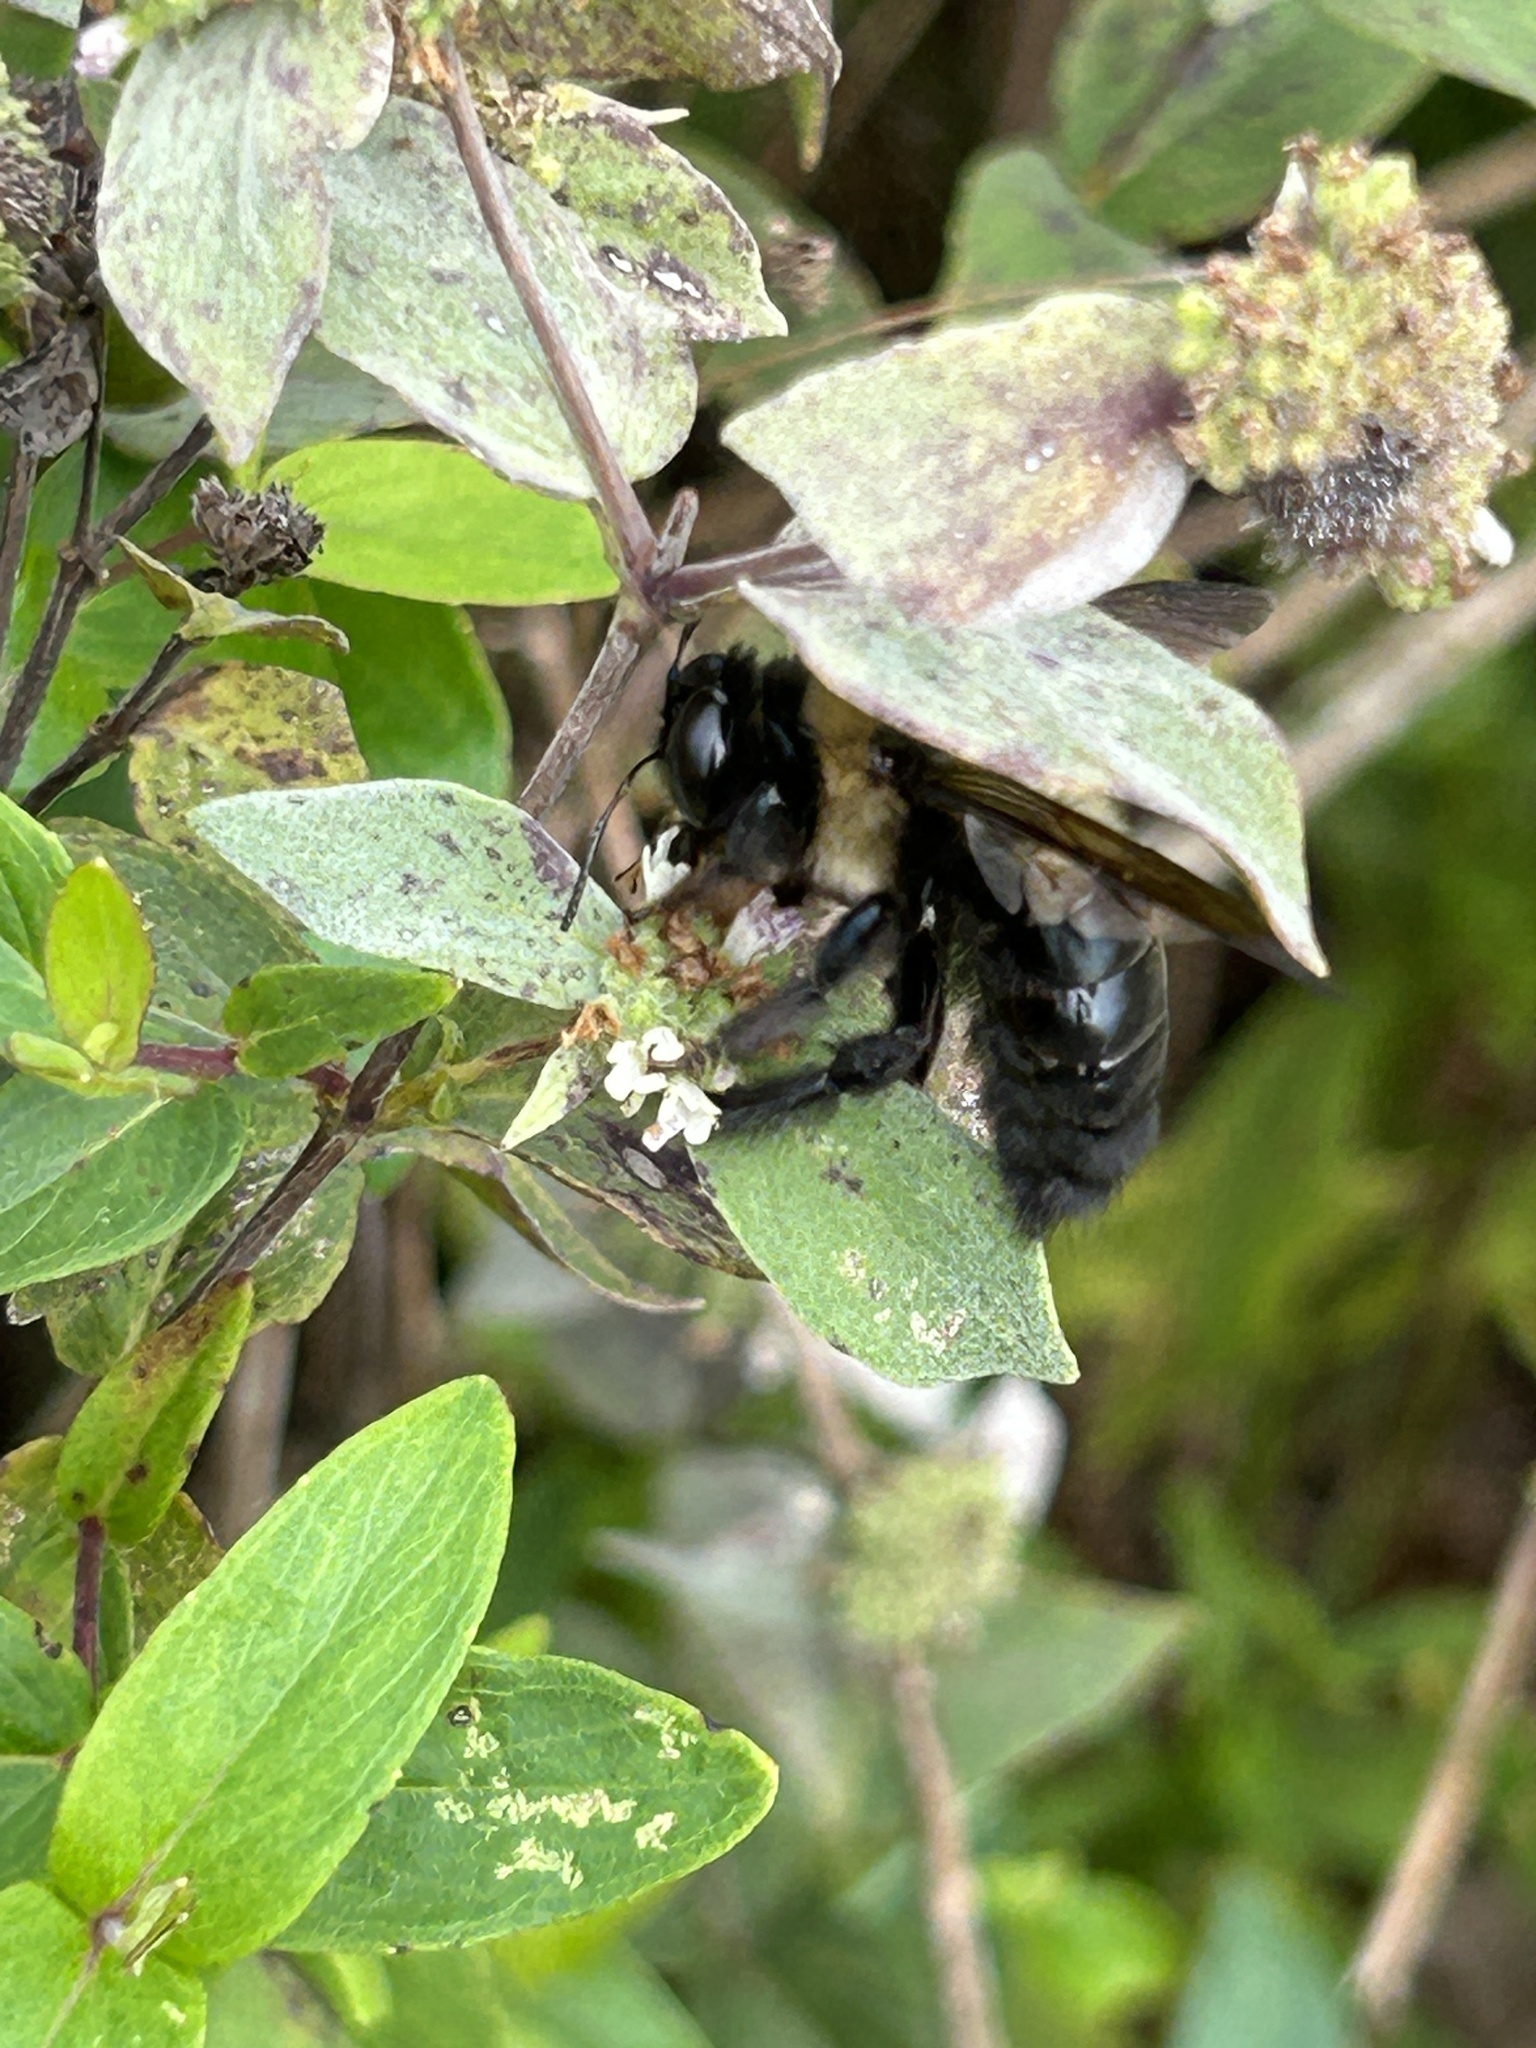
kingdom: Animalia
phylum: Arthropoda
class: Insecta
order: Hymenoptera
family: Apidae
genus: Xylocopa
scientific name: Xylocopa virginica
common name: Carpenter bee
